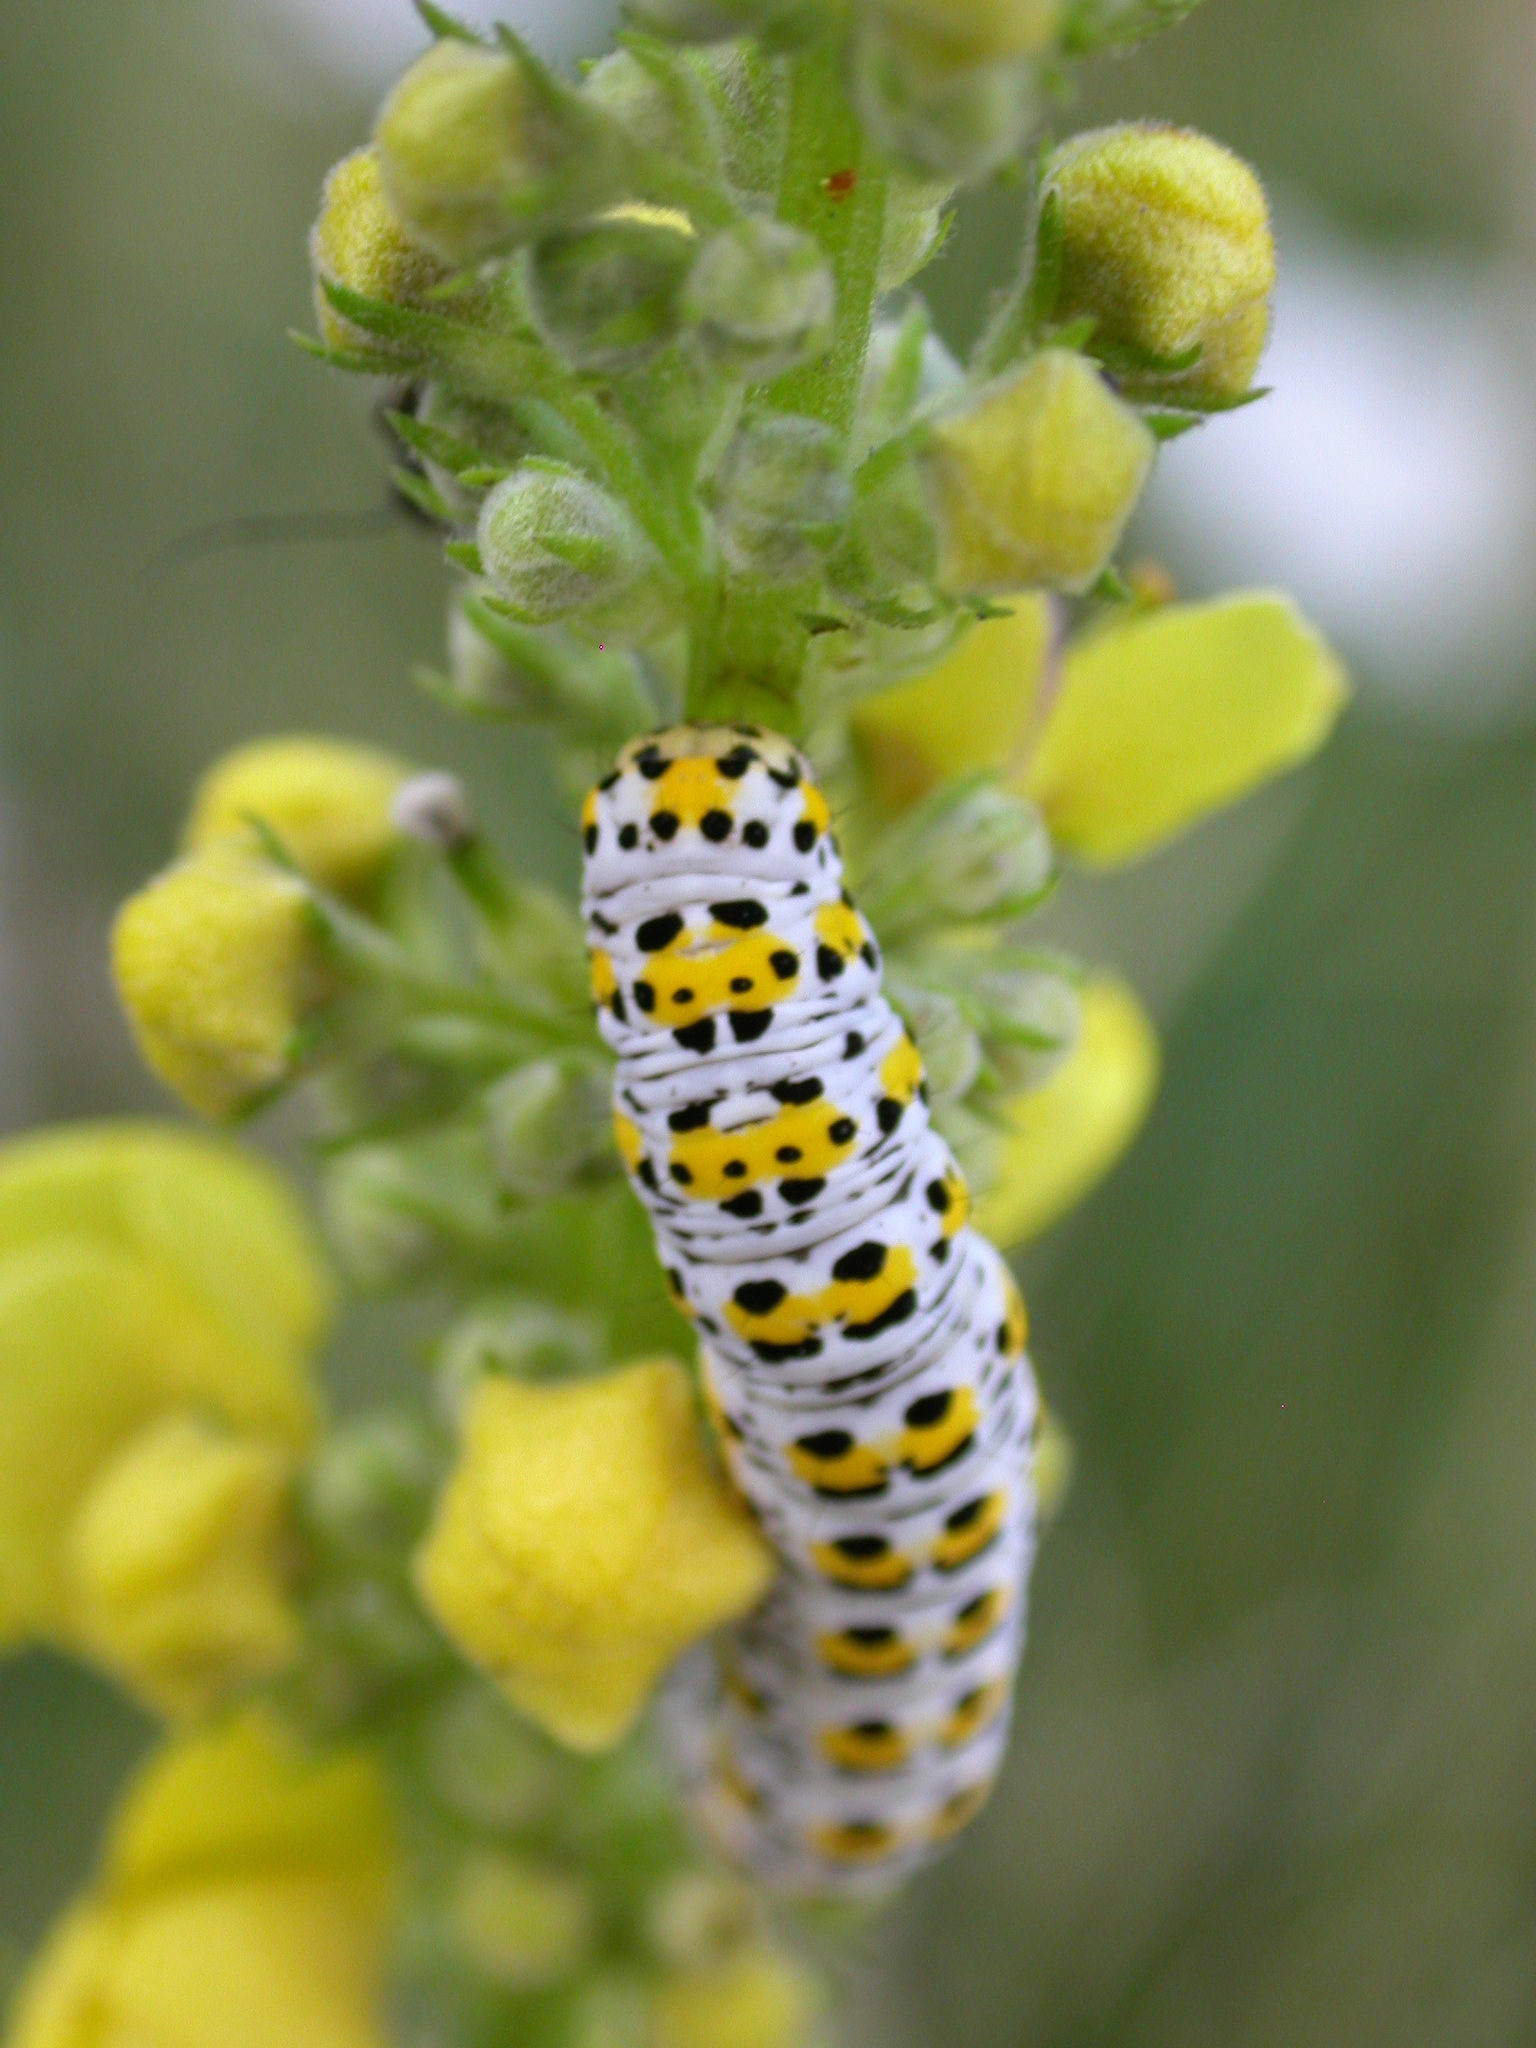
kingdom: Animalia
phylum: Arthropoda
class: Insecta
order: Lepidoptera
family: Noctuidae
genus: Cucullia
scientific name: Cucullia verbasci
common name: Mullein
